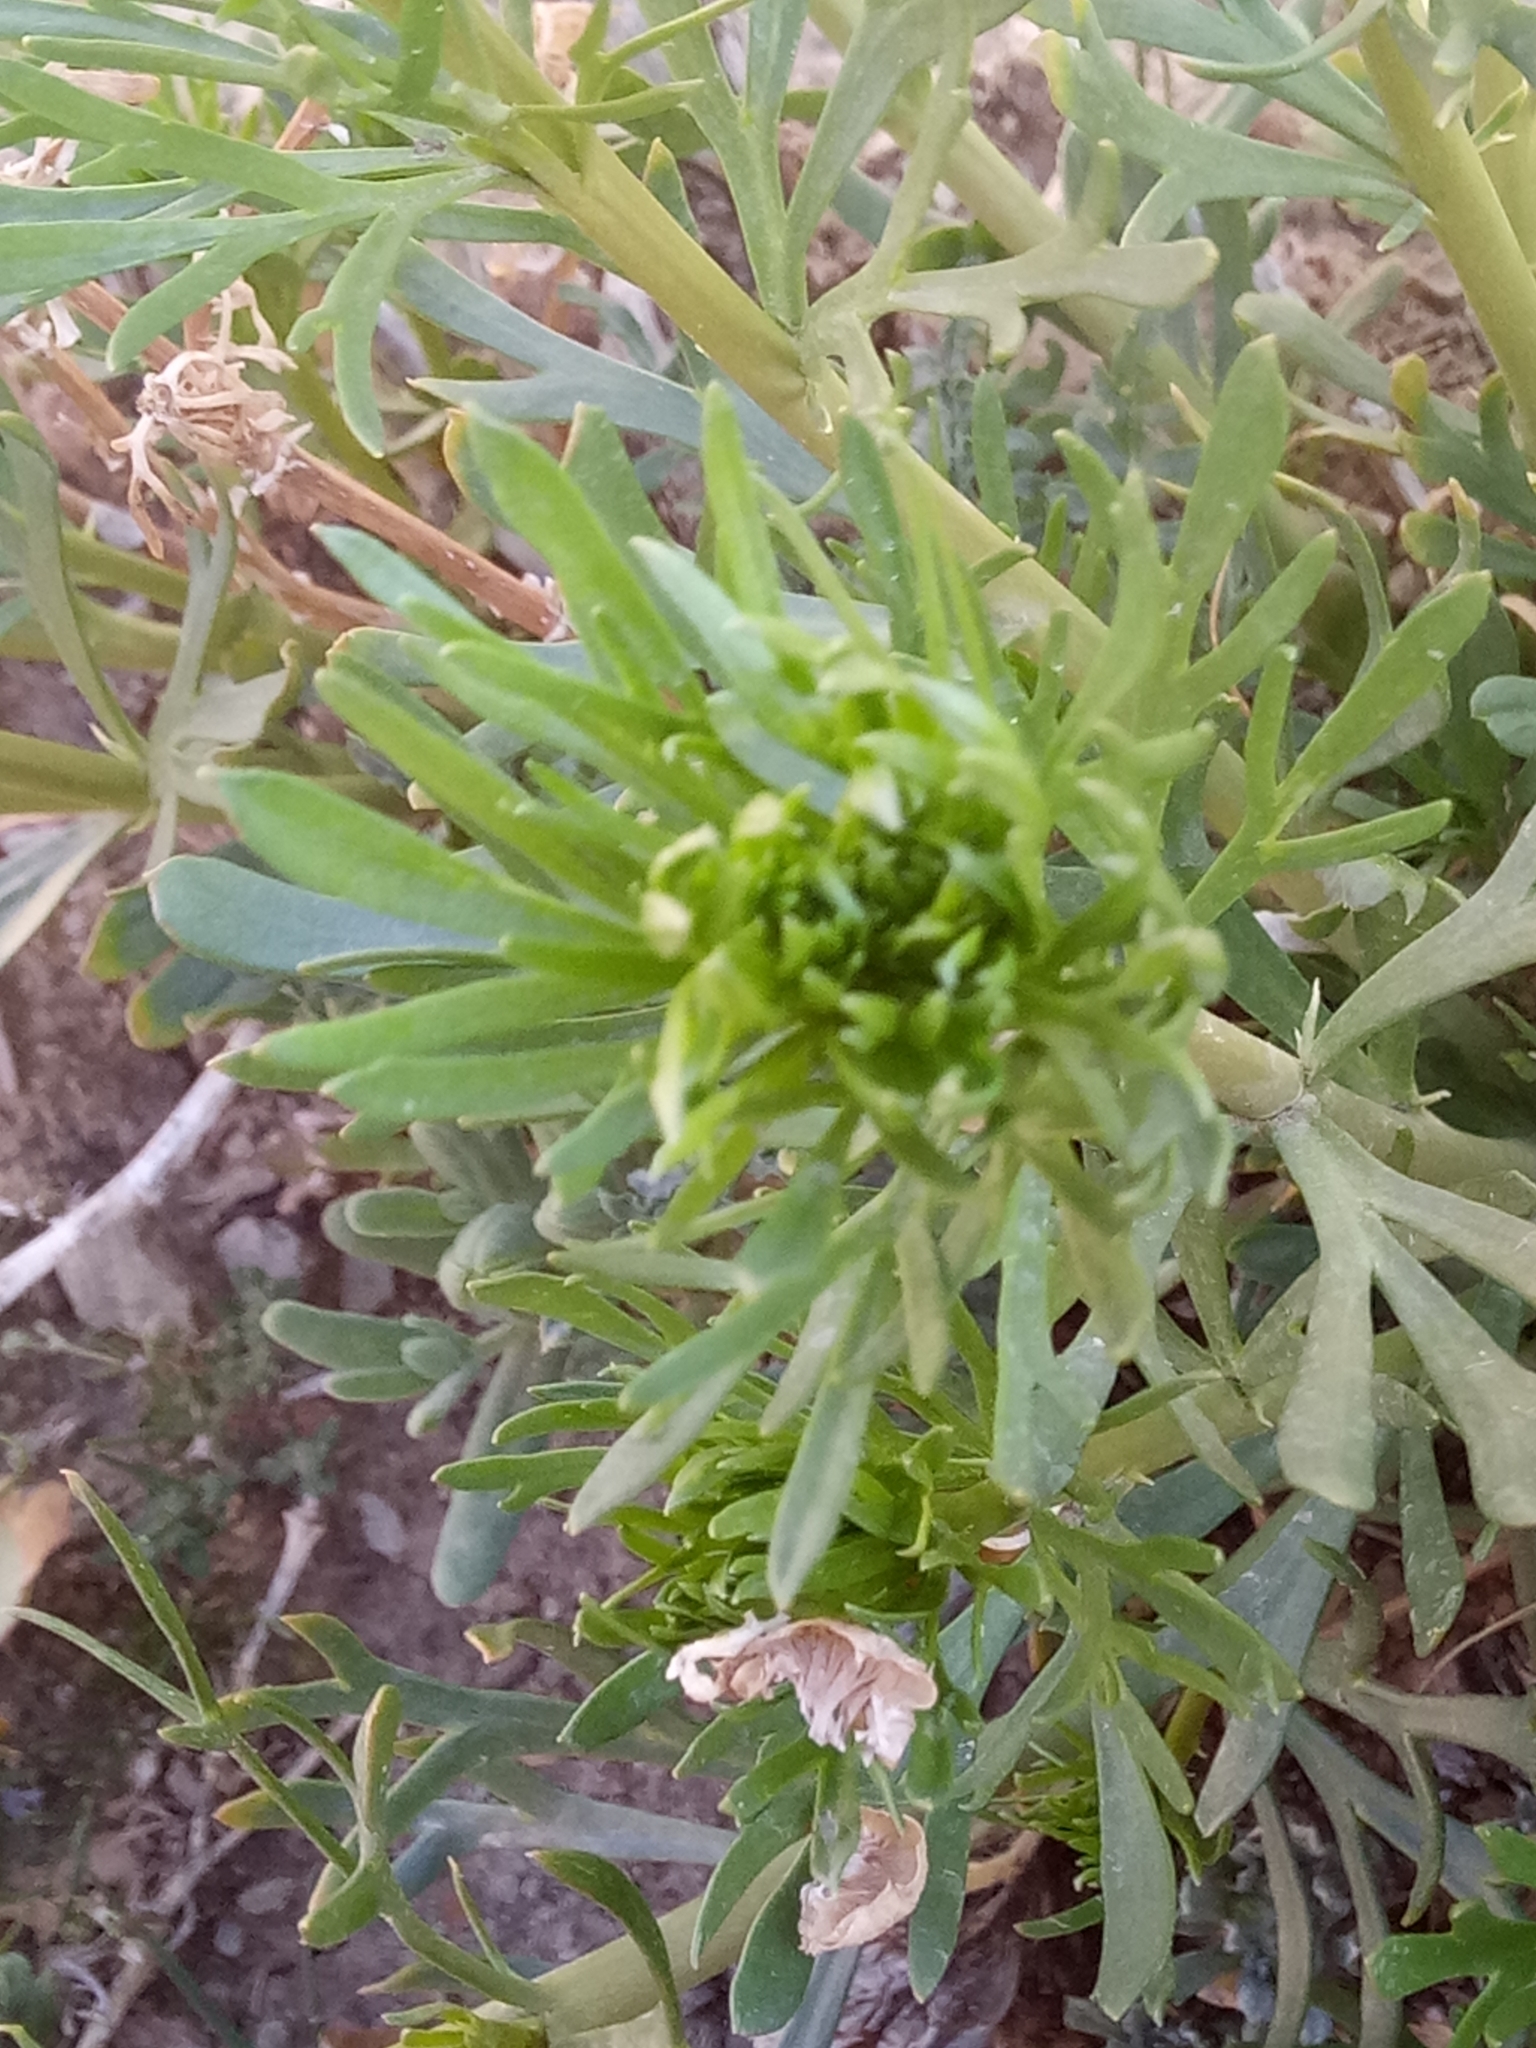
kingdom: Plantae
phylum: Tracheophyta
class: Magnoliopsida
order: Sapindales
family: Tetradiclidaceae
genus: Peganum
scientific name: Peganum harmala
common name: Harmal peganum
